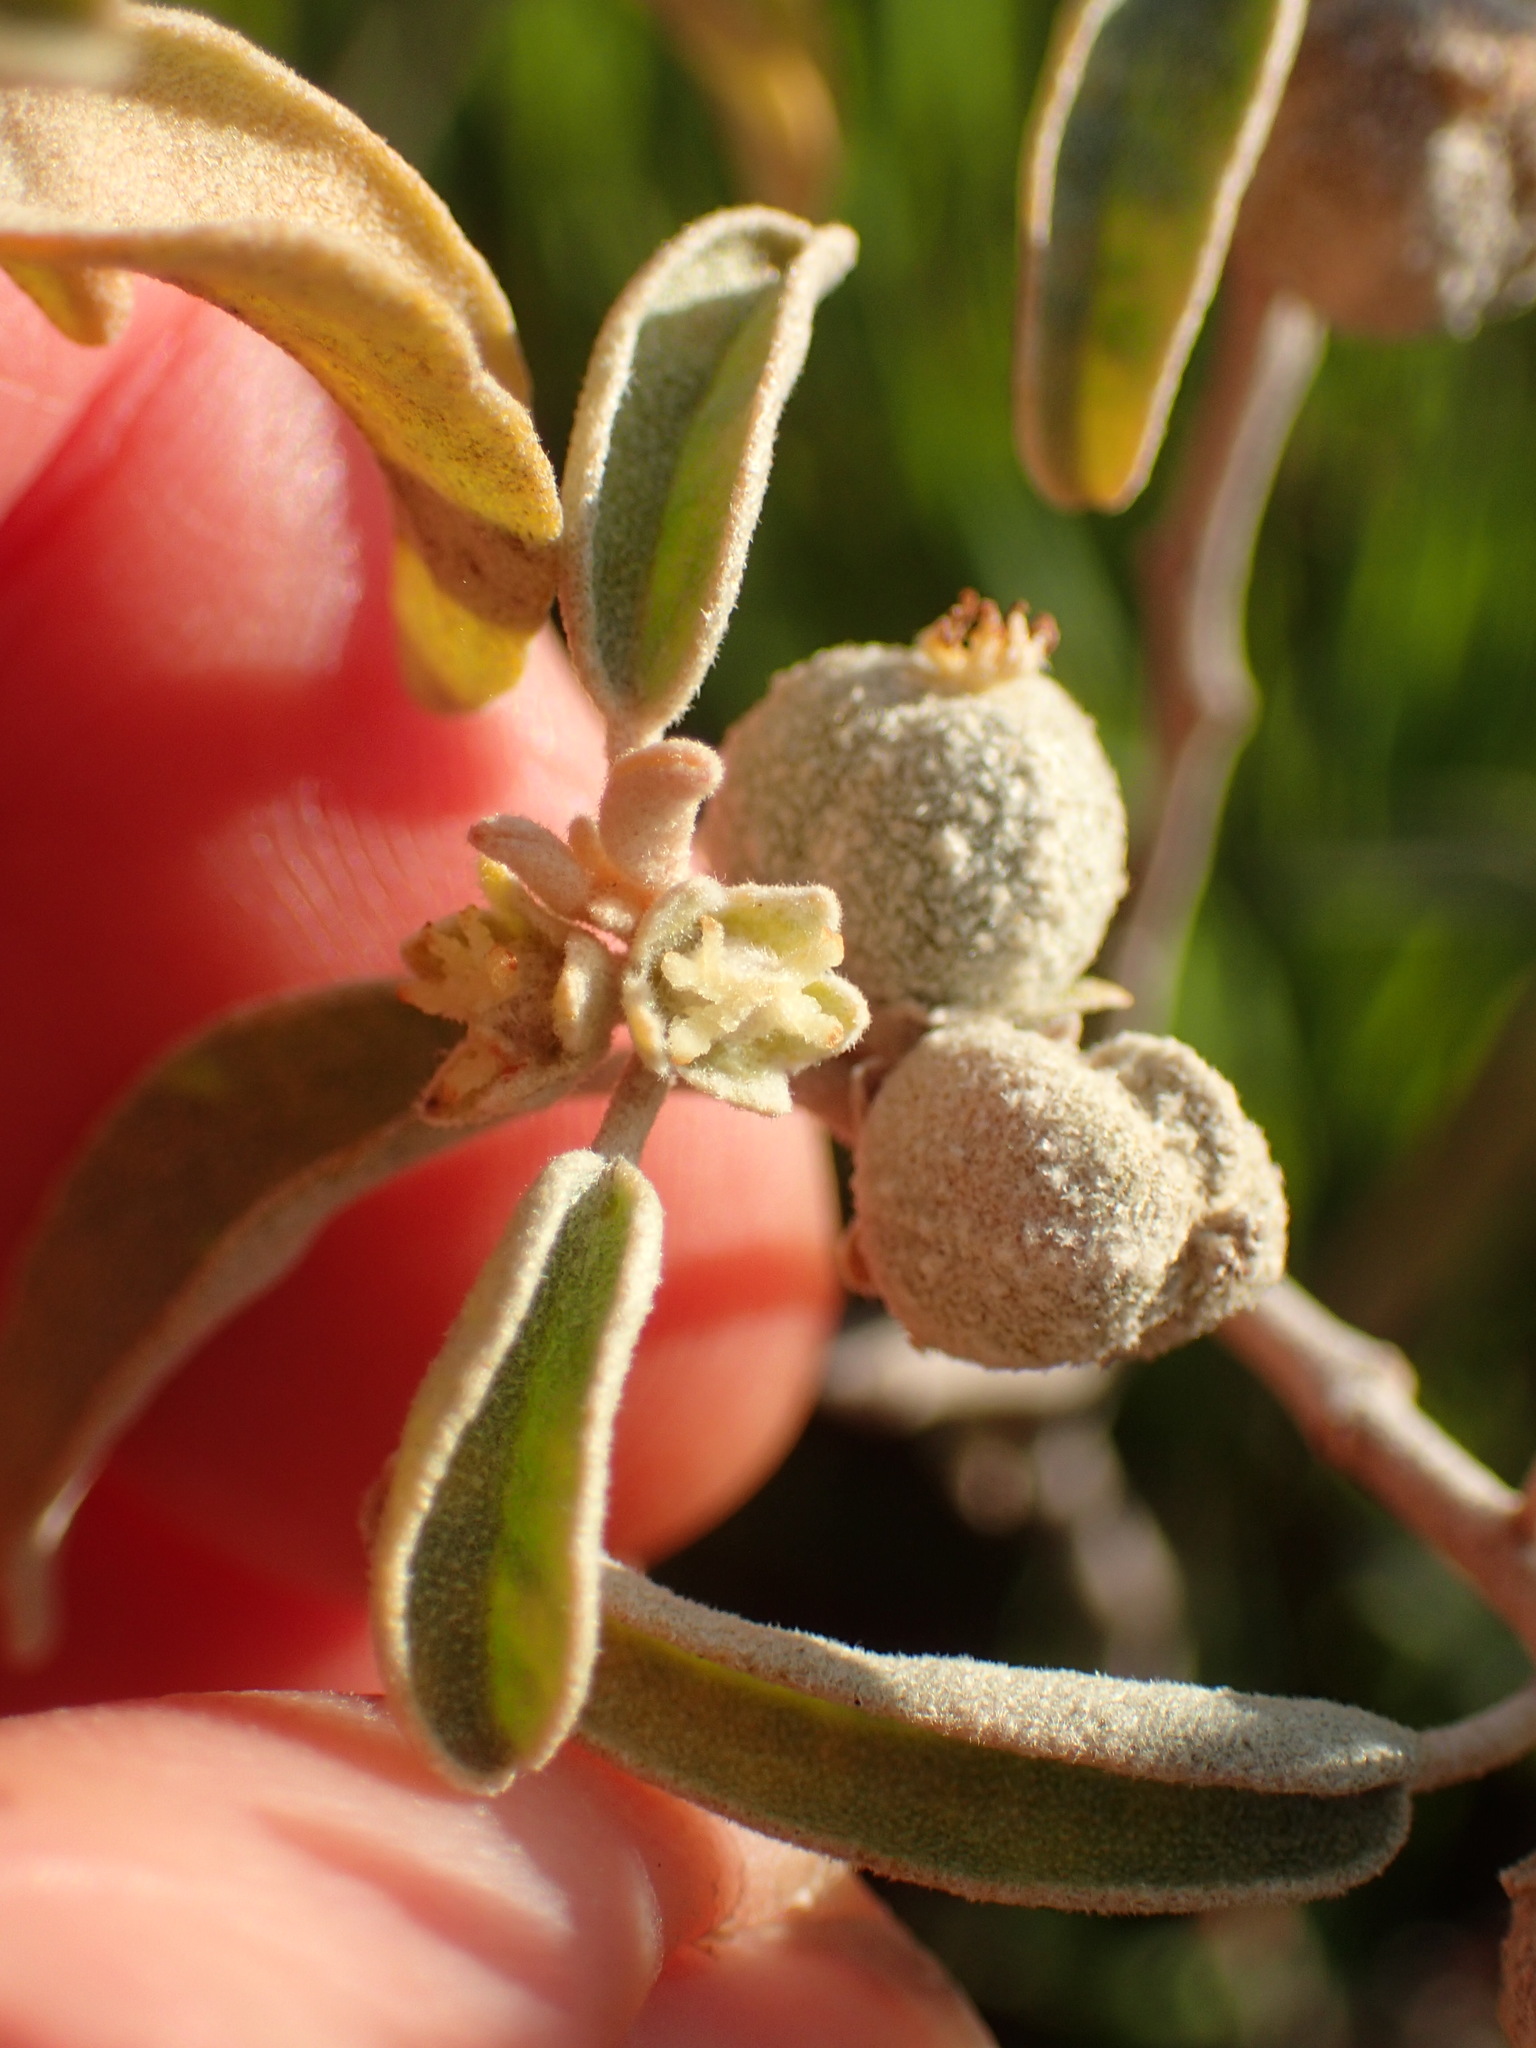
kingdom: Plantae
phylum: Tracheophyta
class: Magnoliopsida
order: Malpighiales
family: Euphorbiaceae
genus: Croton
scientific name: Croton californicus
